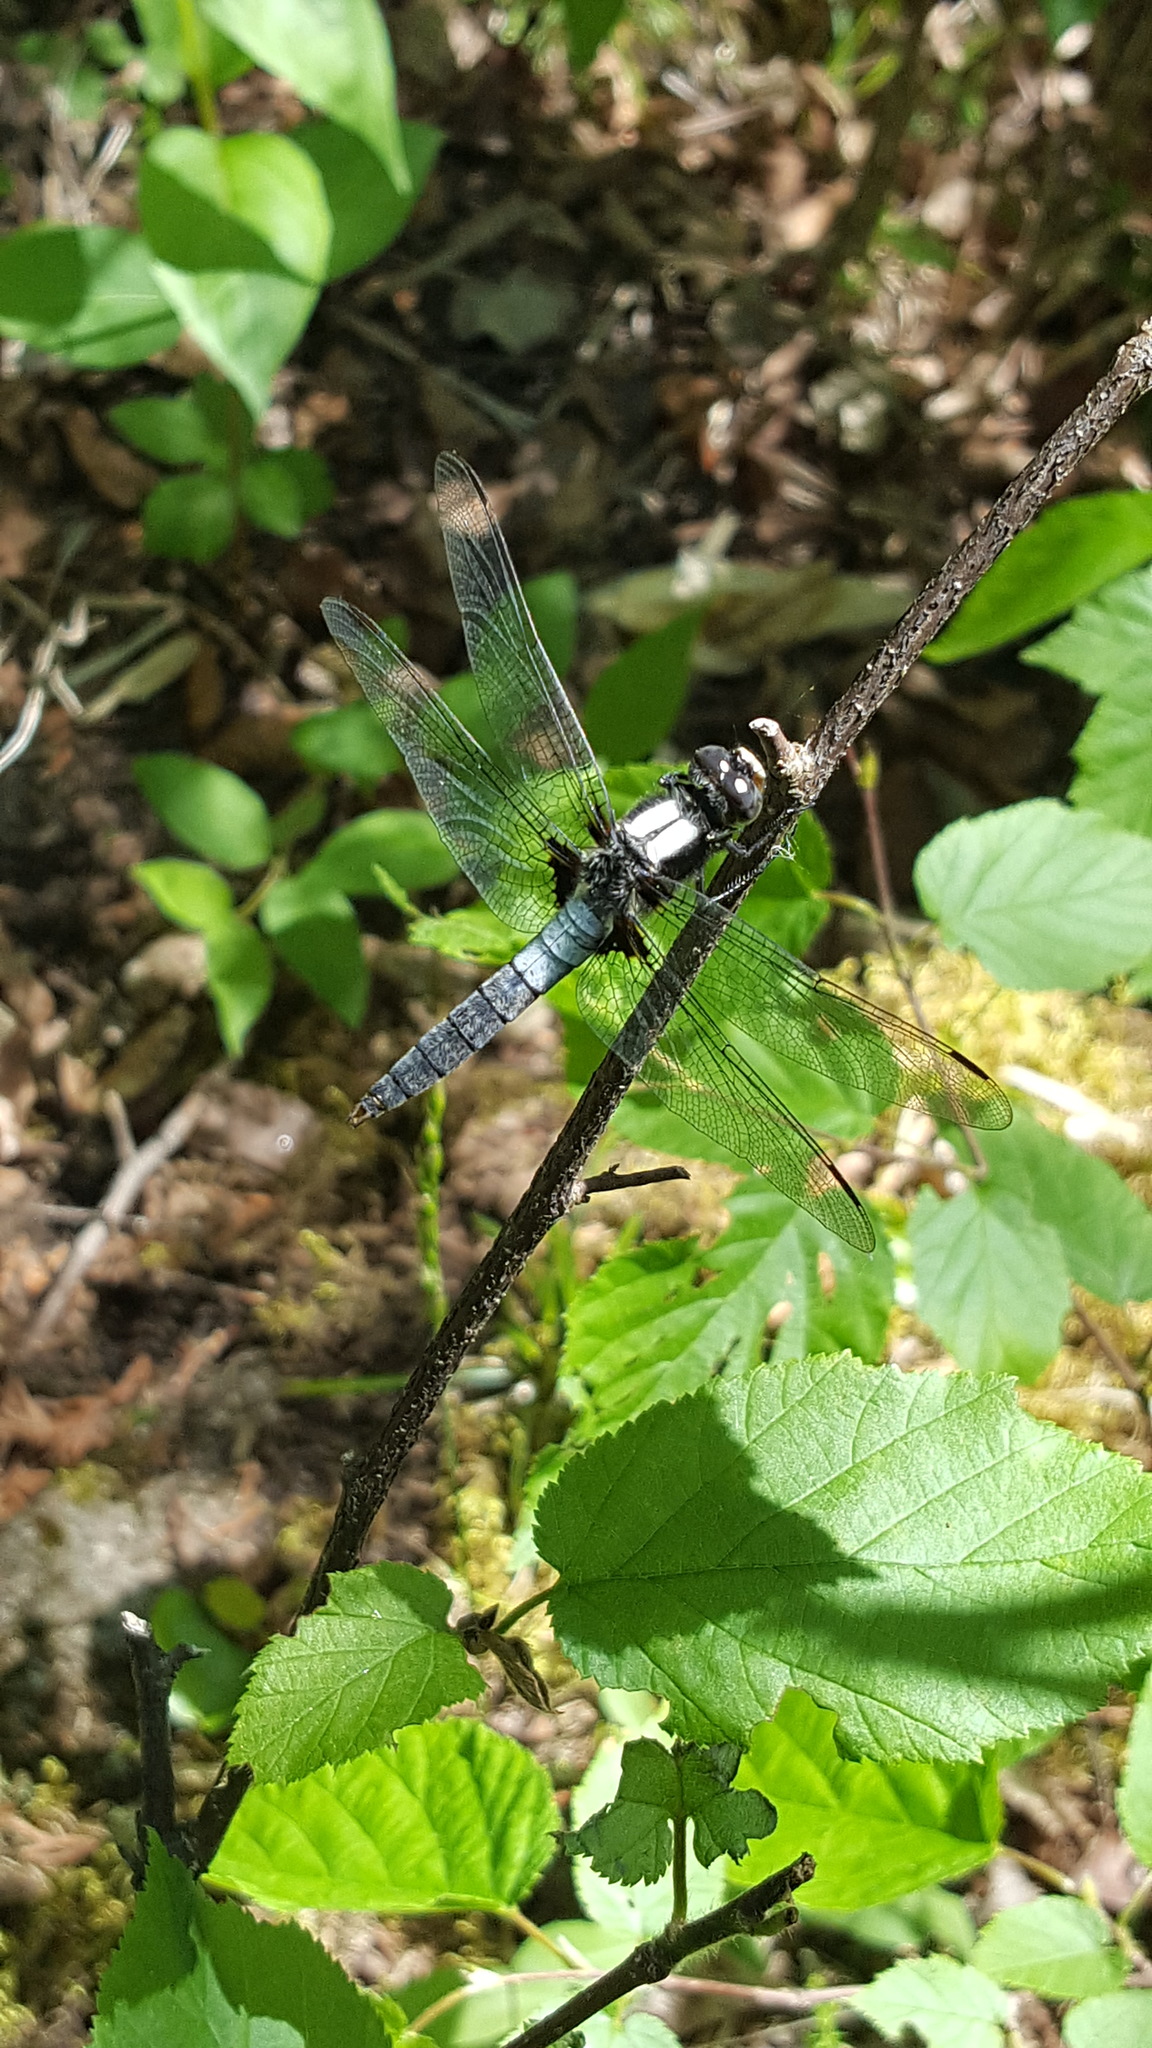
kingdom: Animalia
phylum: Arthropoda
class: Insecta
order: Odonata
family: Libellulidae
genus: Ladona
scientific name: Ladona julia
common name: Chalk-fronted corporal
